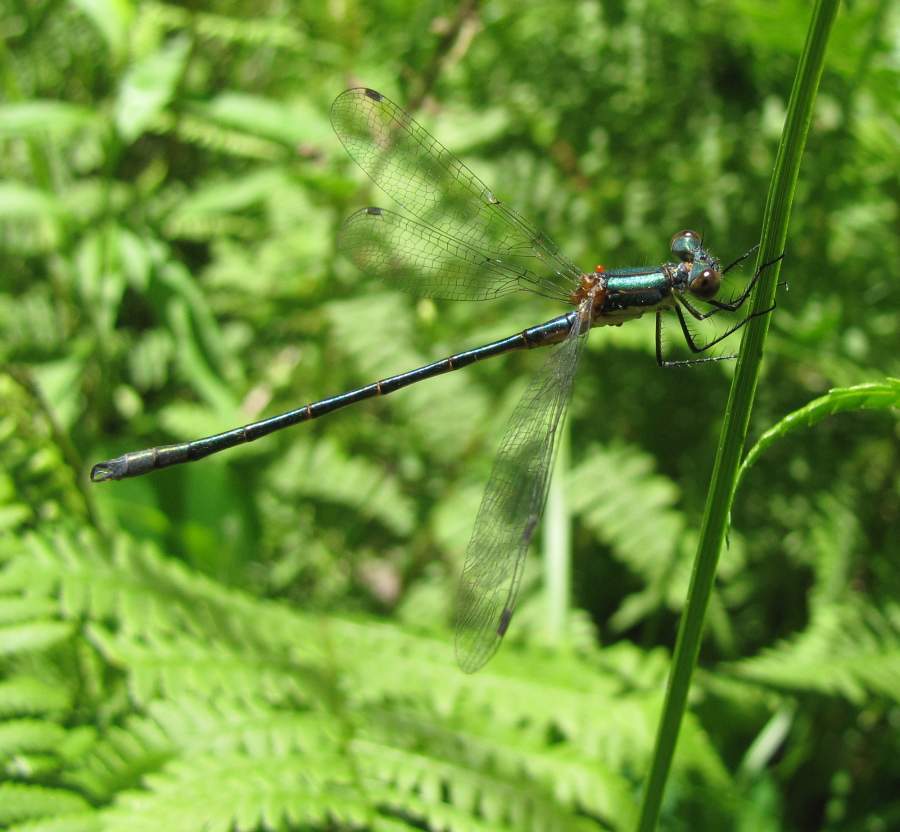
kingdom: Animalia
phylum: Arthropoda
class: Insecta
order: Odonata
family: Lestidae
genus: Lestes
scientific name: Lestes dryas
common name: Scarce emerald damselfly
